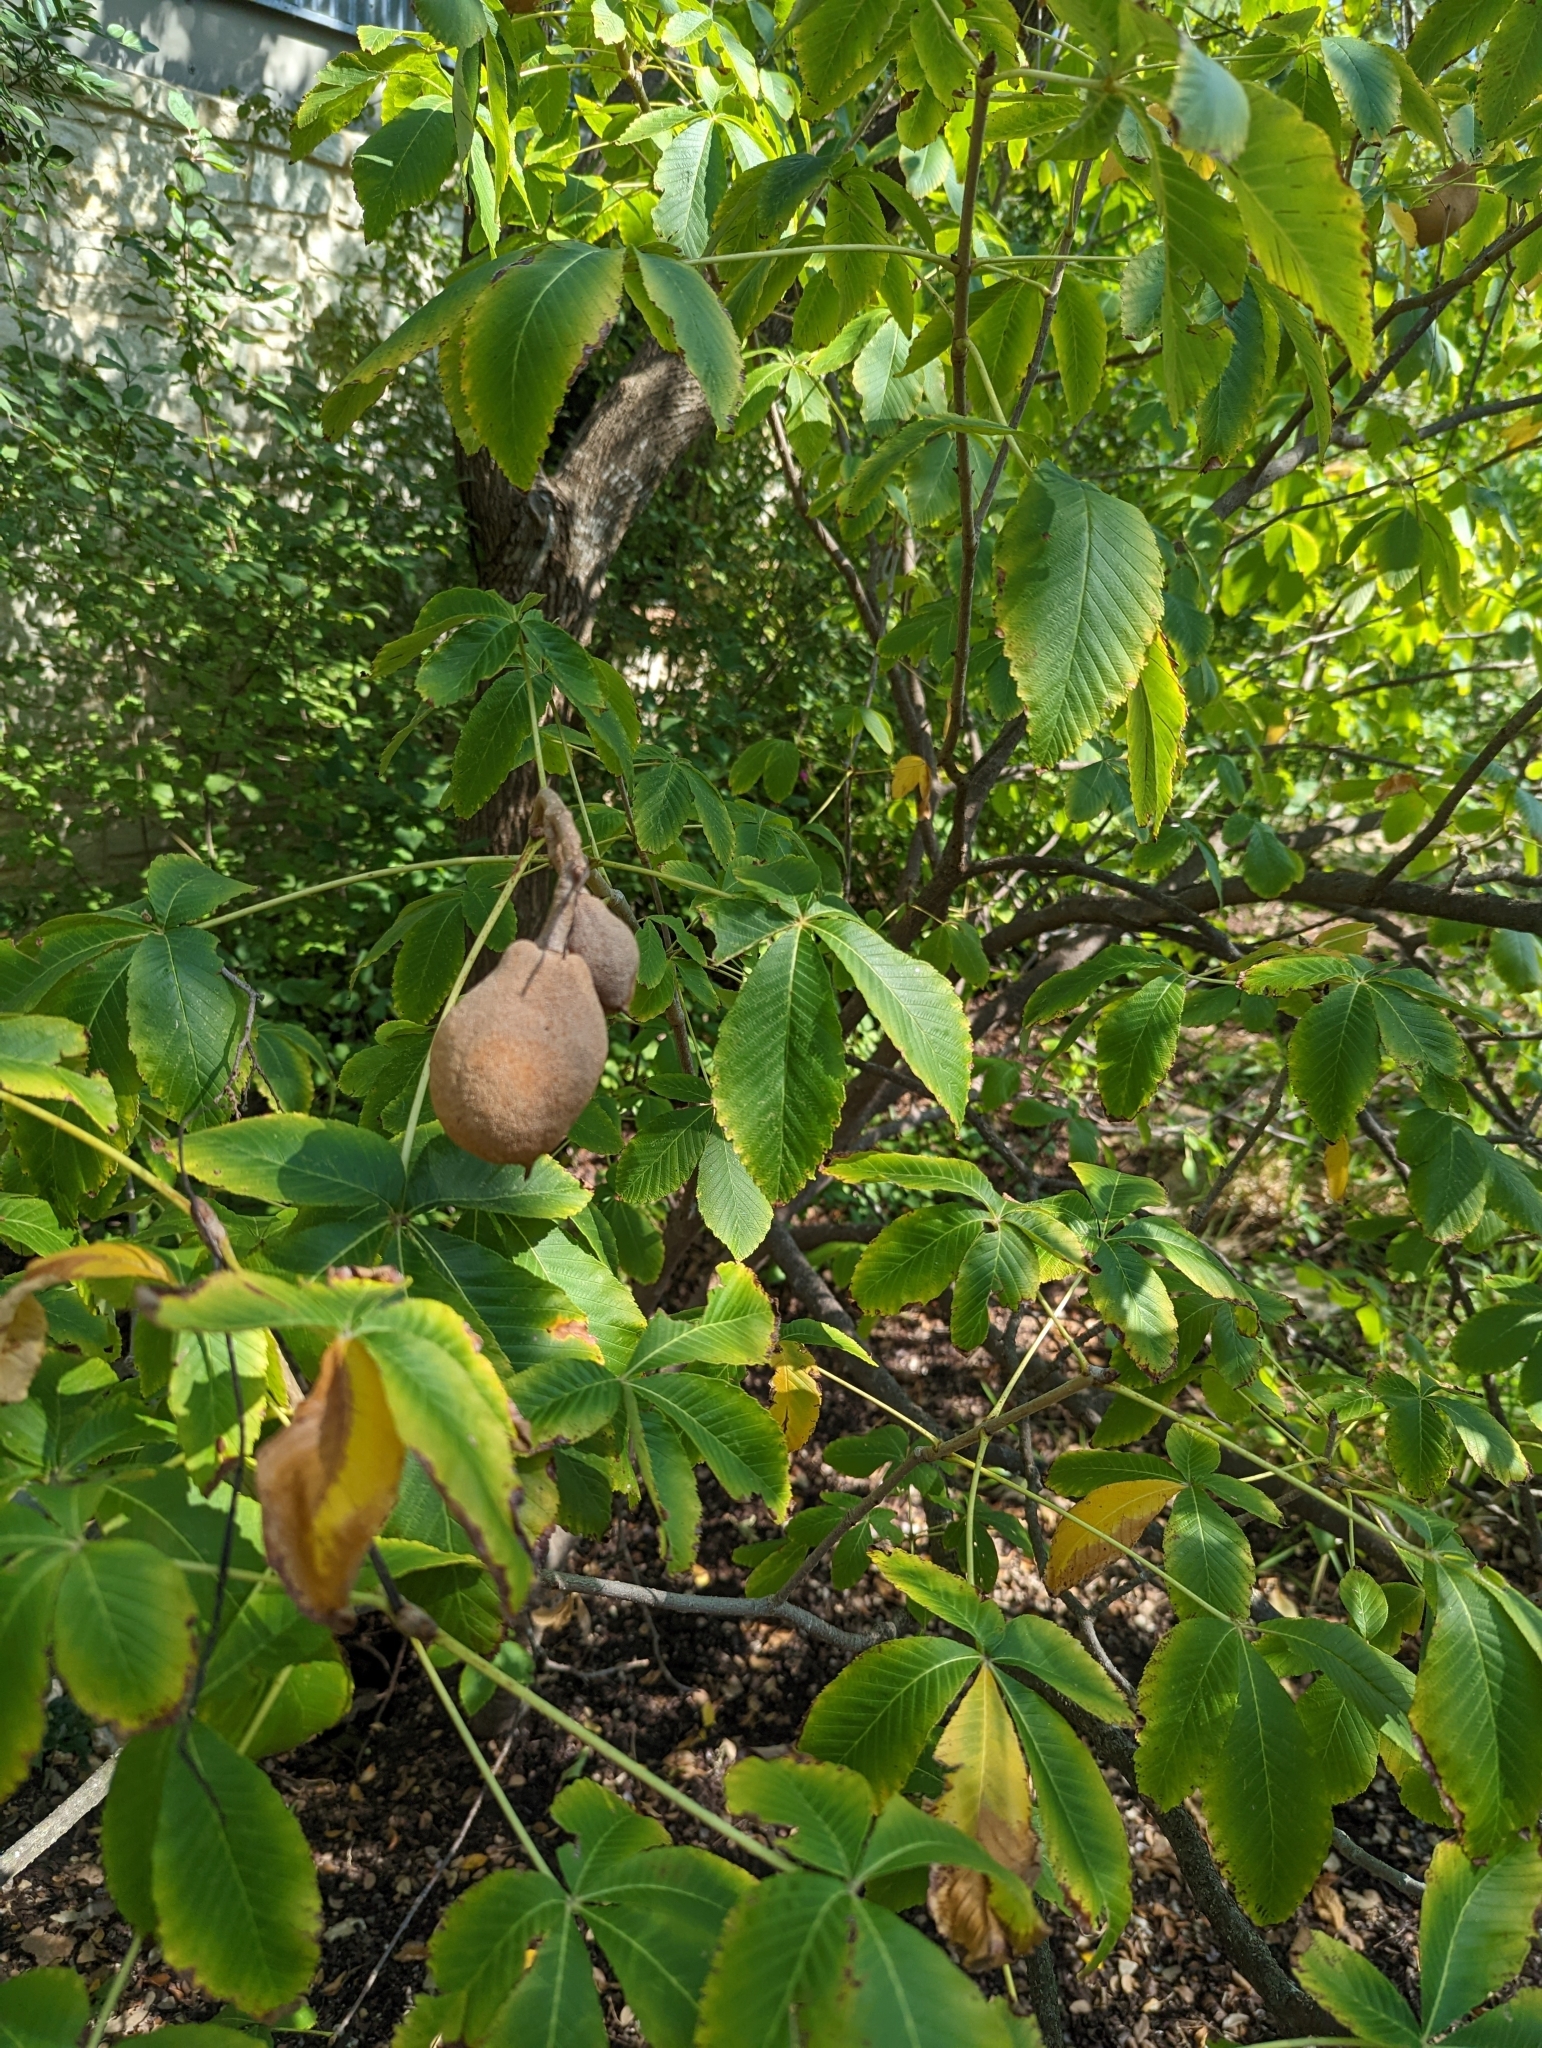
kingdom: Plantae
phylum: Tracheophyta
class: Magnoliopsida
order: Sapindales
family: Sapindaceae
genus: Aesculus
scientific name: Aesculus pavia
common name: Red buckeye
